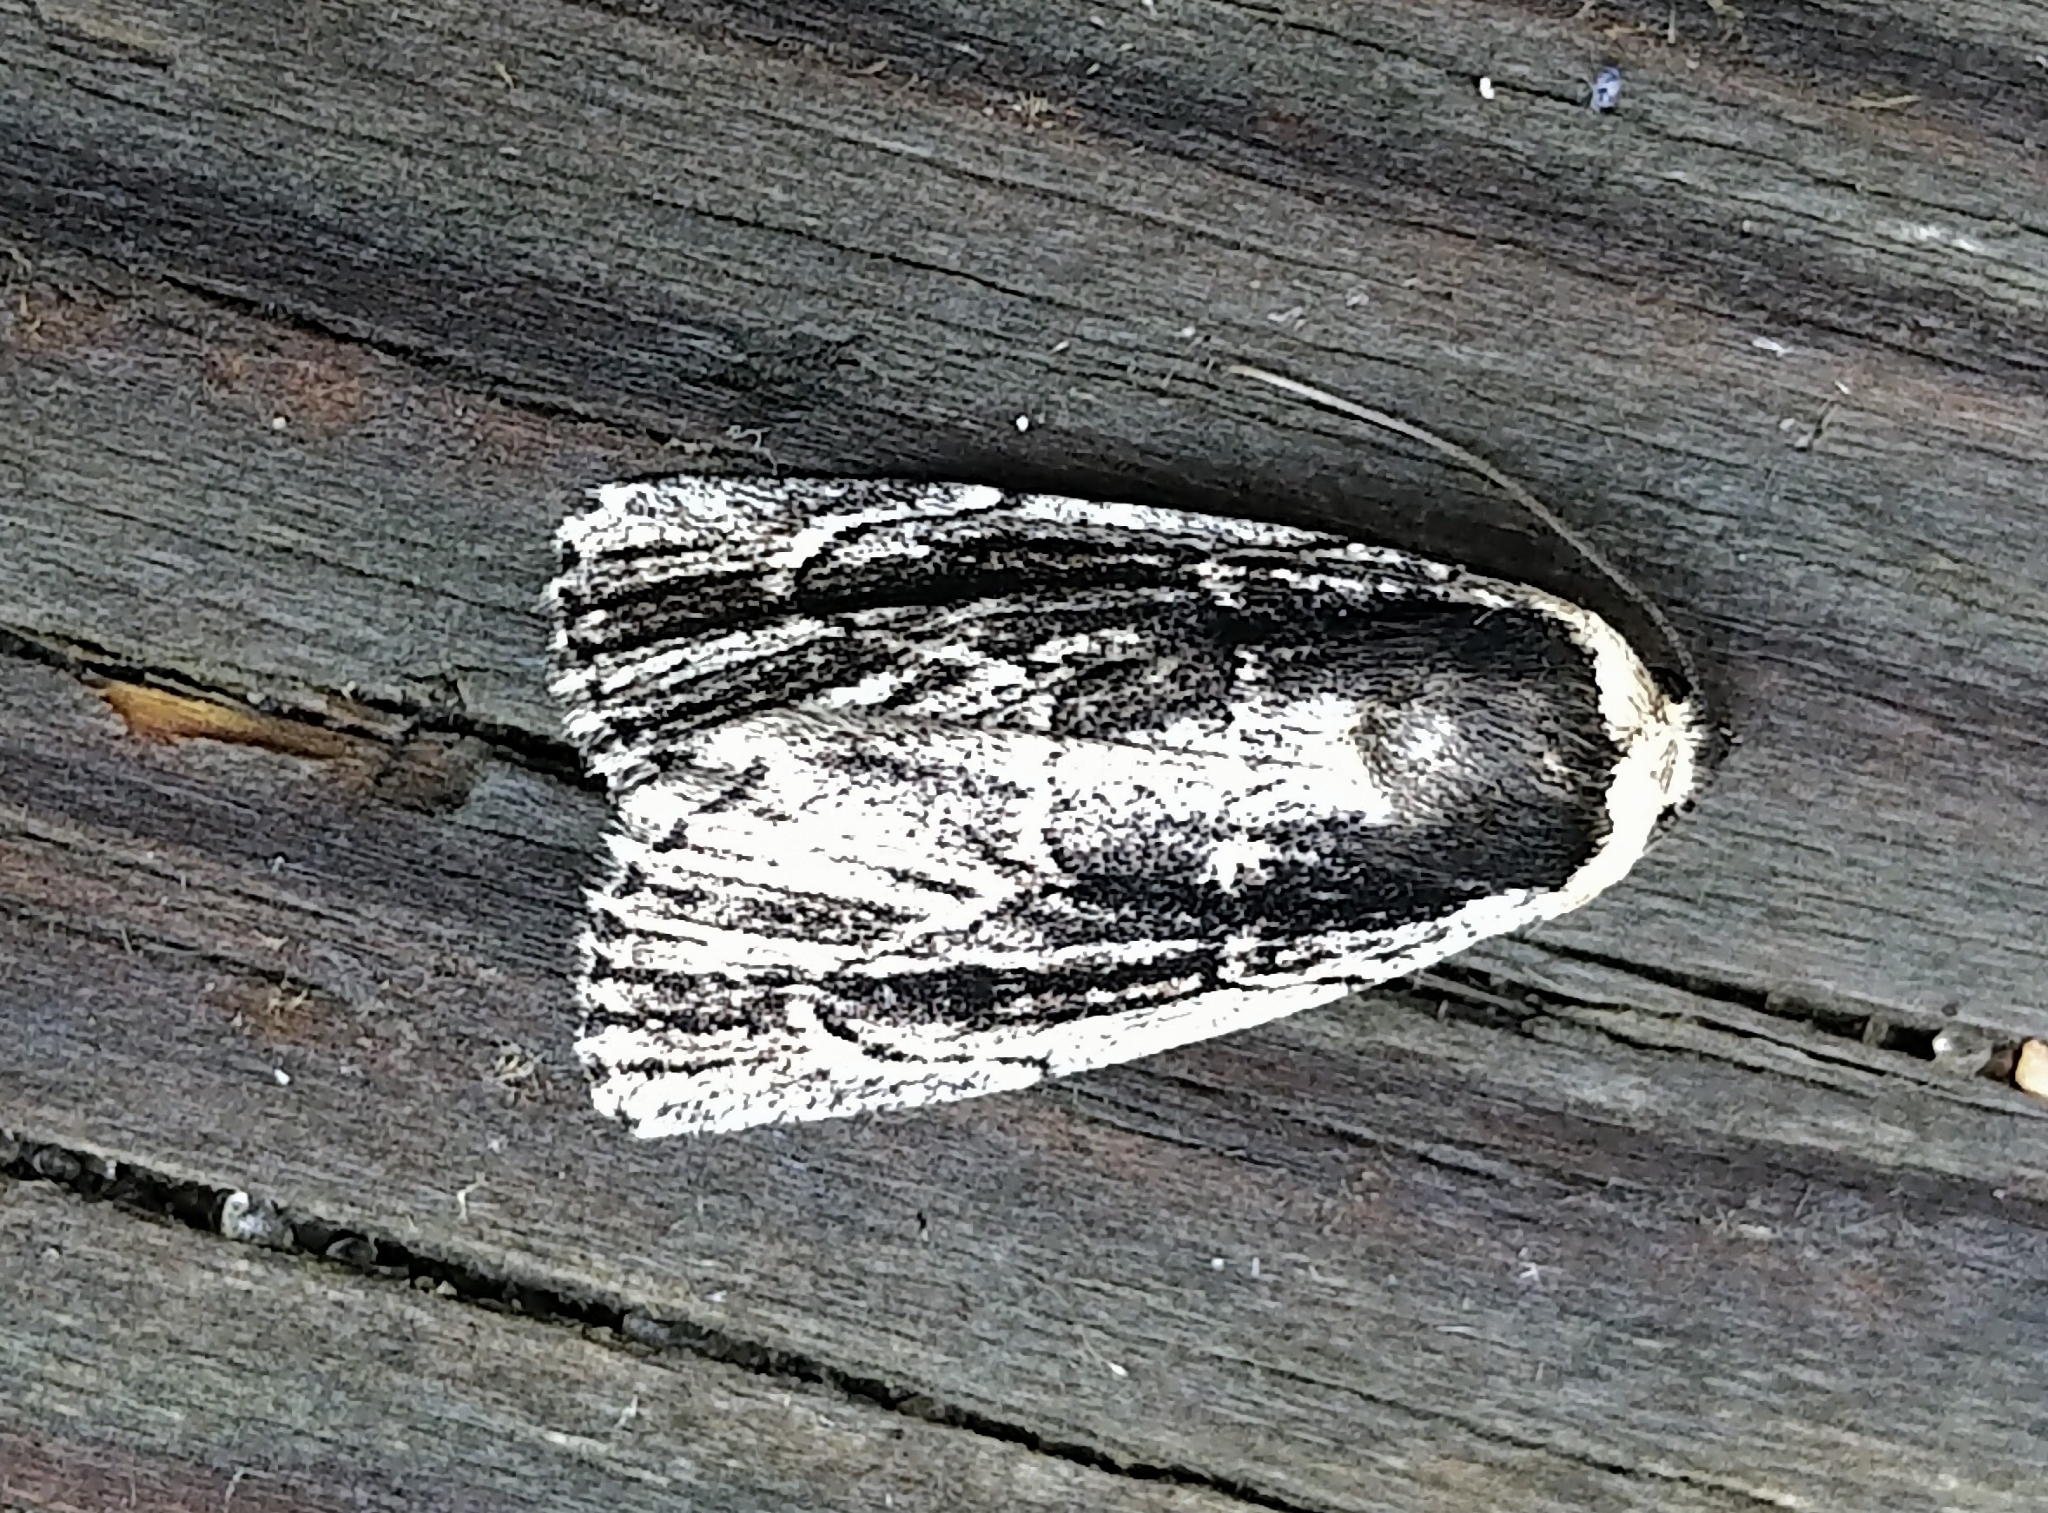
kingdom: Animalia
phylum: Arthropoda
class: Insecta
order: Lepidoptera
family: Noctuidae
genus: Sympistis
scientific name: Sympistis badistriga
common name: Brown-lined sallow moth
